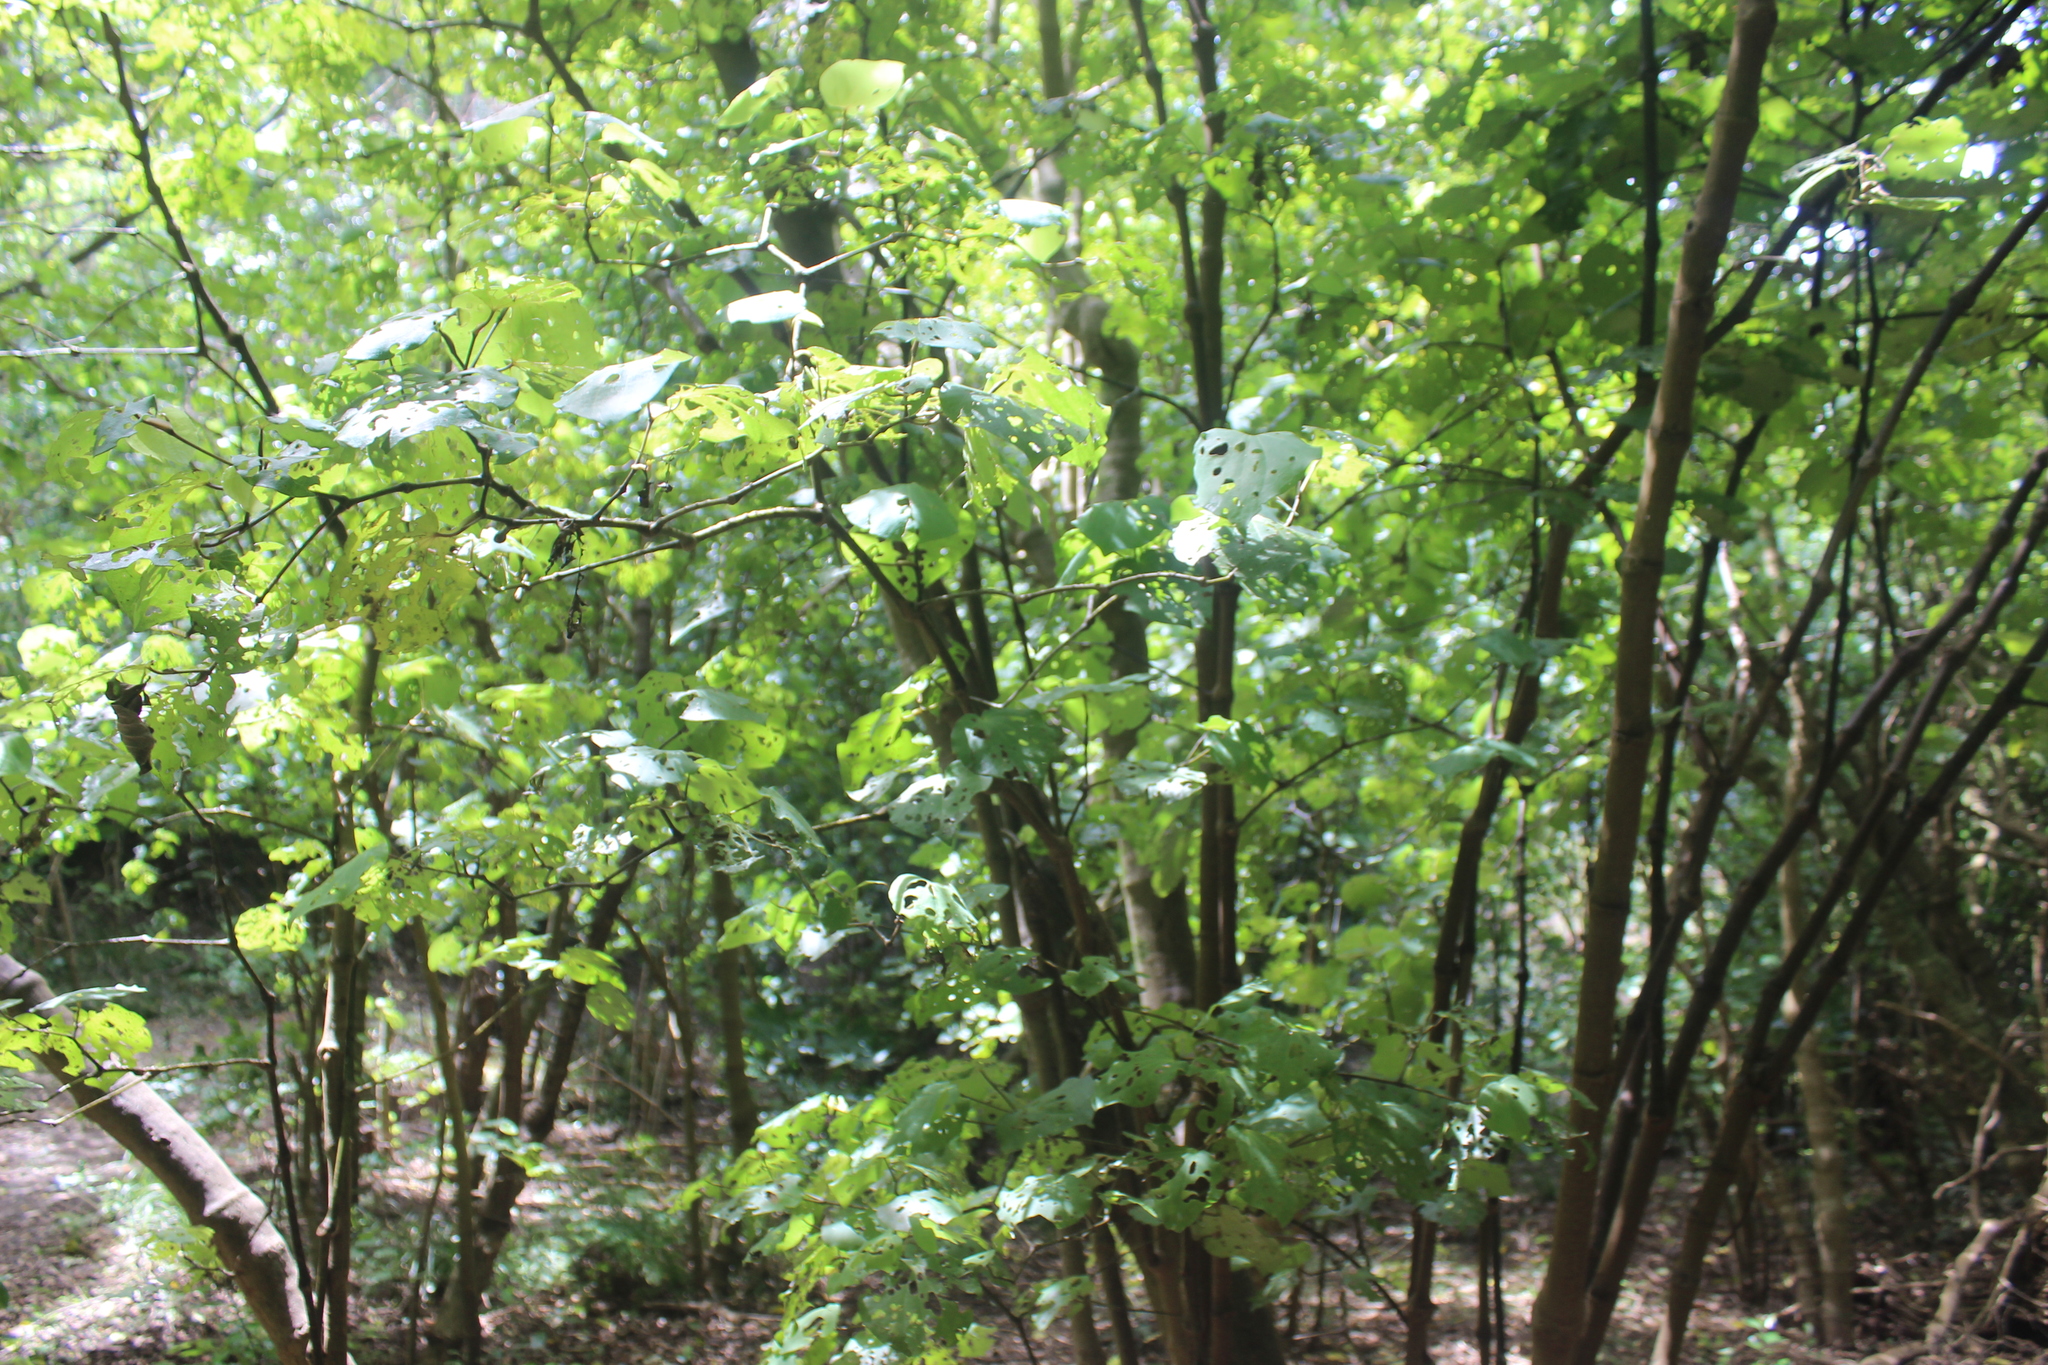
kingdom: Plantae
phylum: Tracheophyta
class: Magnoliopsida
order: Piperales
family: Piperaceae
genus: Macropiper
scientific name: Macropiper excelsum
